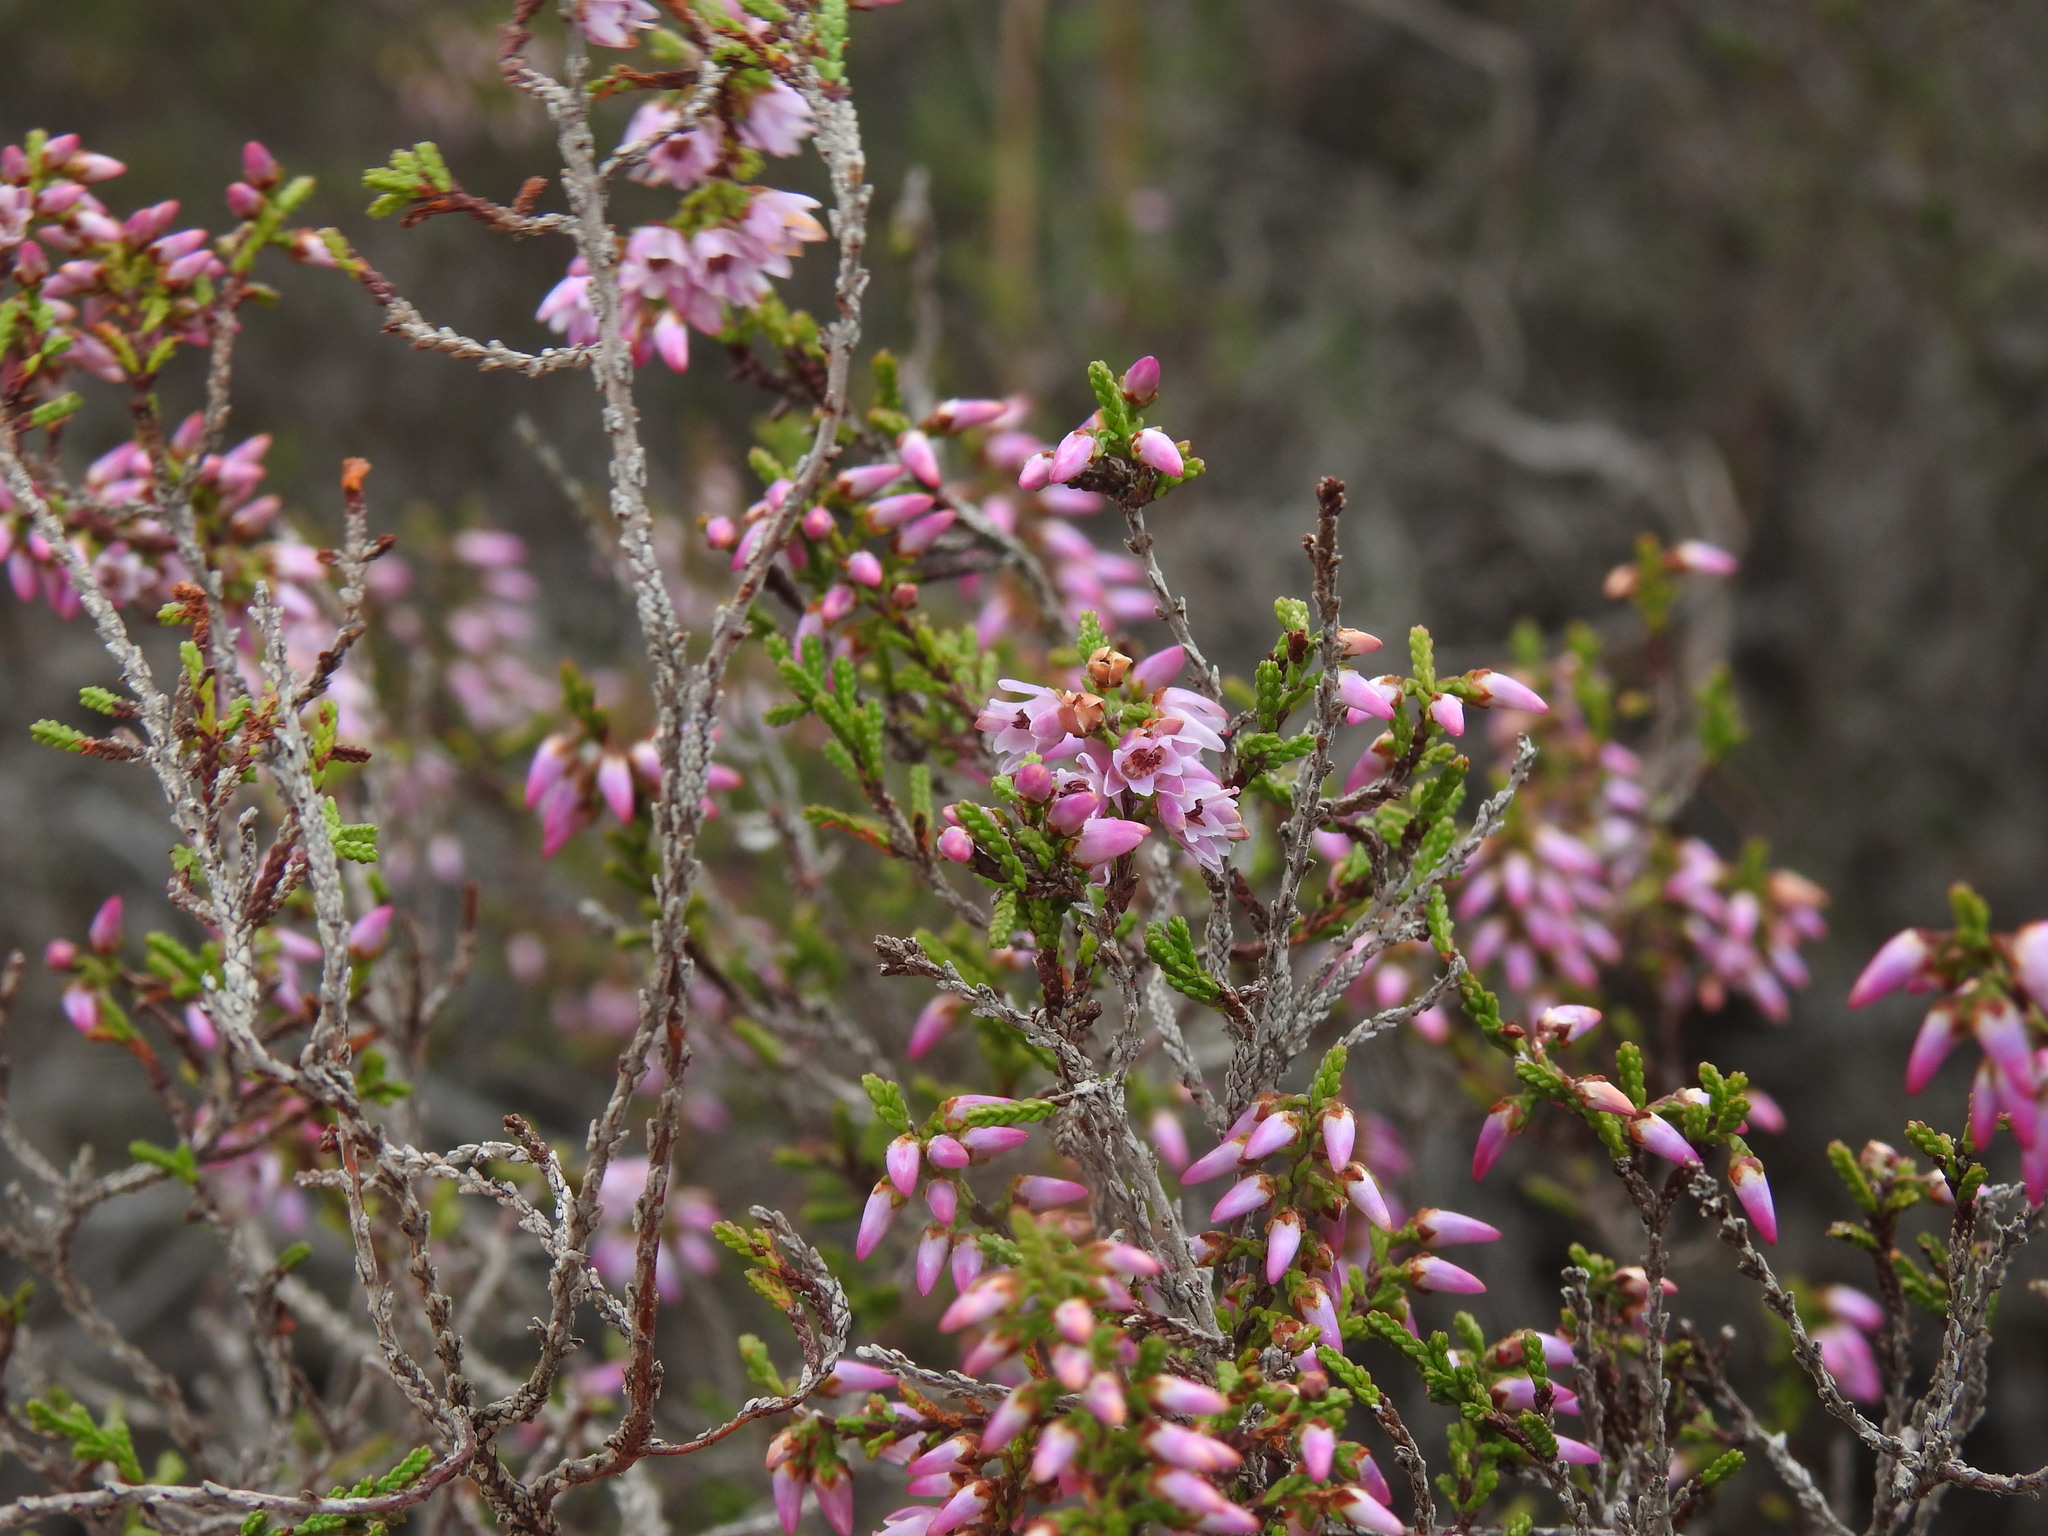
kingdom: Plantae
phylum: Tracheophyta
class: Magnoliopsida
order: Ericales
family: Ericaceae
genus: Calluna
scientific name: Calluna vulgaris
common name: Heather
